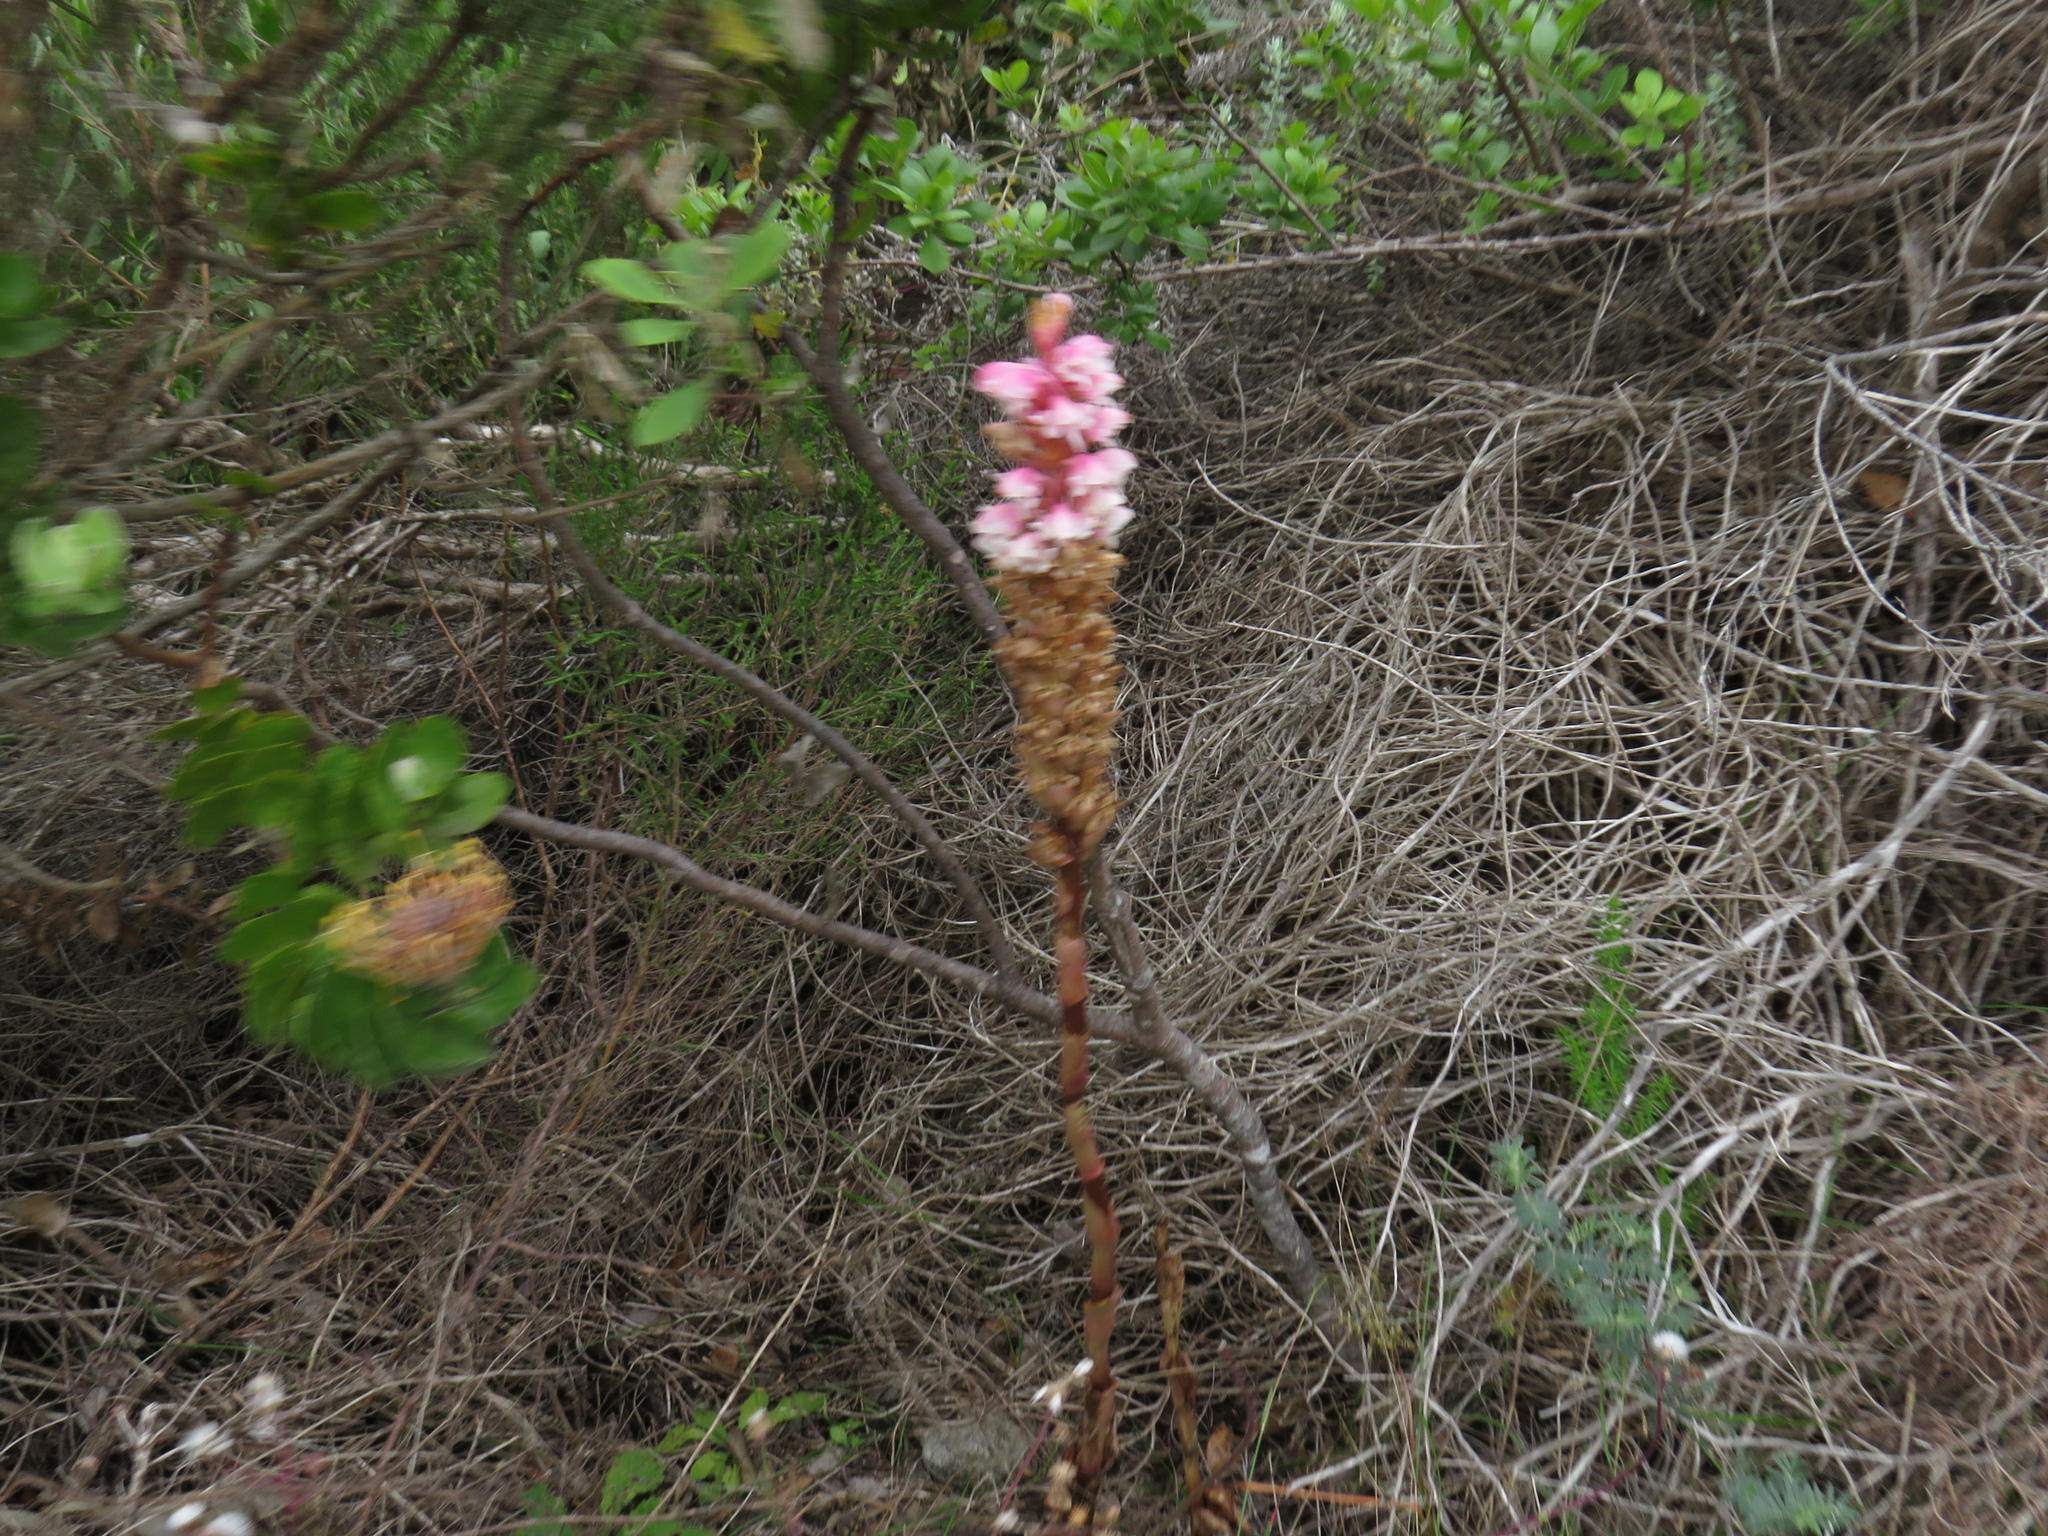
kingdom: Plantae
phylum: Tracheophyta
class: Liliopsida
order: Asparagales
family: Orchidaceae
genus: Satyrium
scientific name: Satyrium carneum
